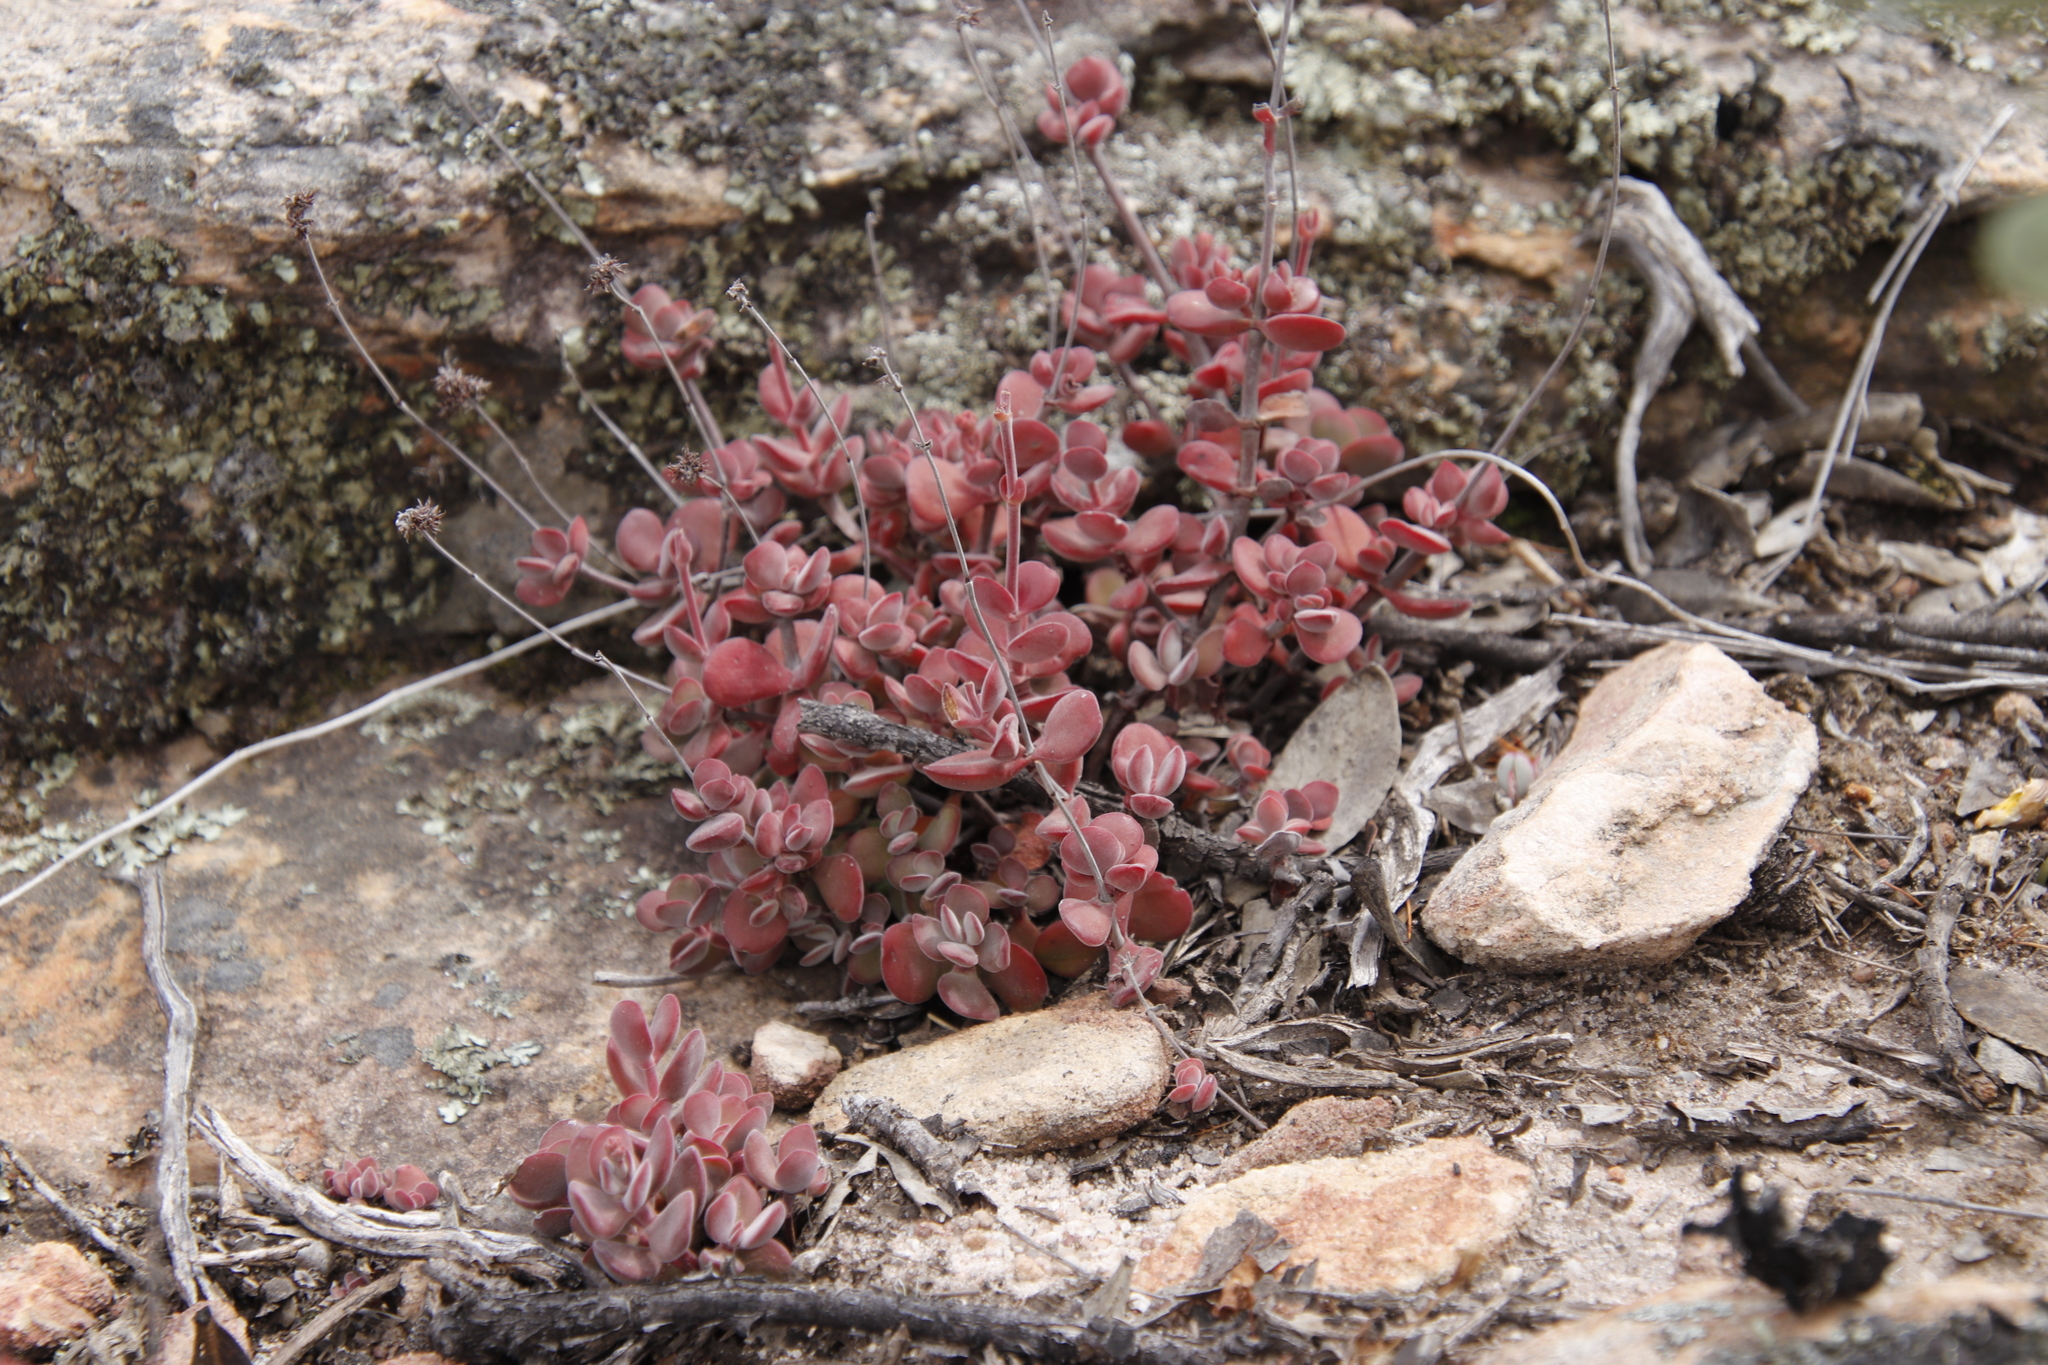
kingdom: Plantae
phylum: Tracheophyta
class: Magnoliopsida
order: Saxifragales
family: Crassulaceae
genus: Crassula
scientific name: Crassula atropurpurea
